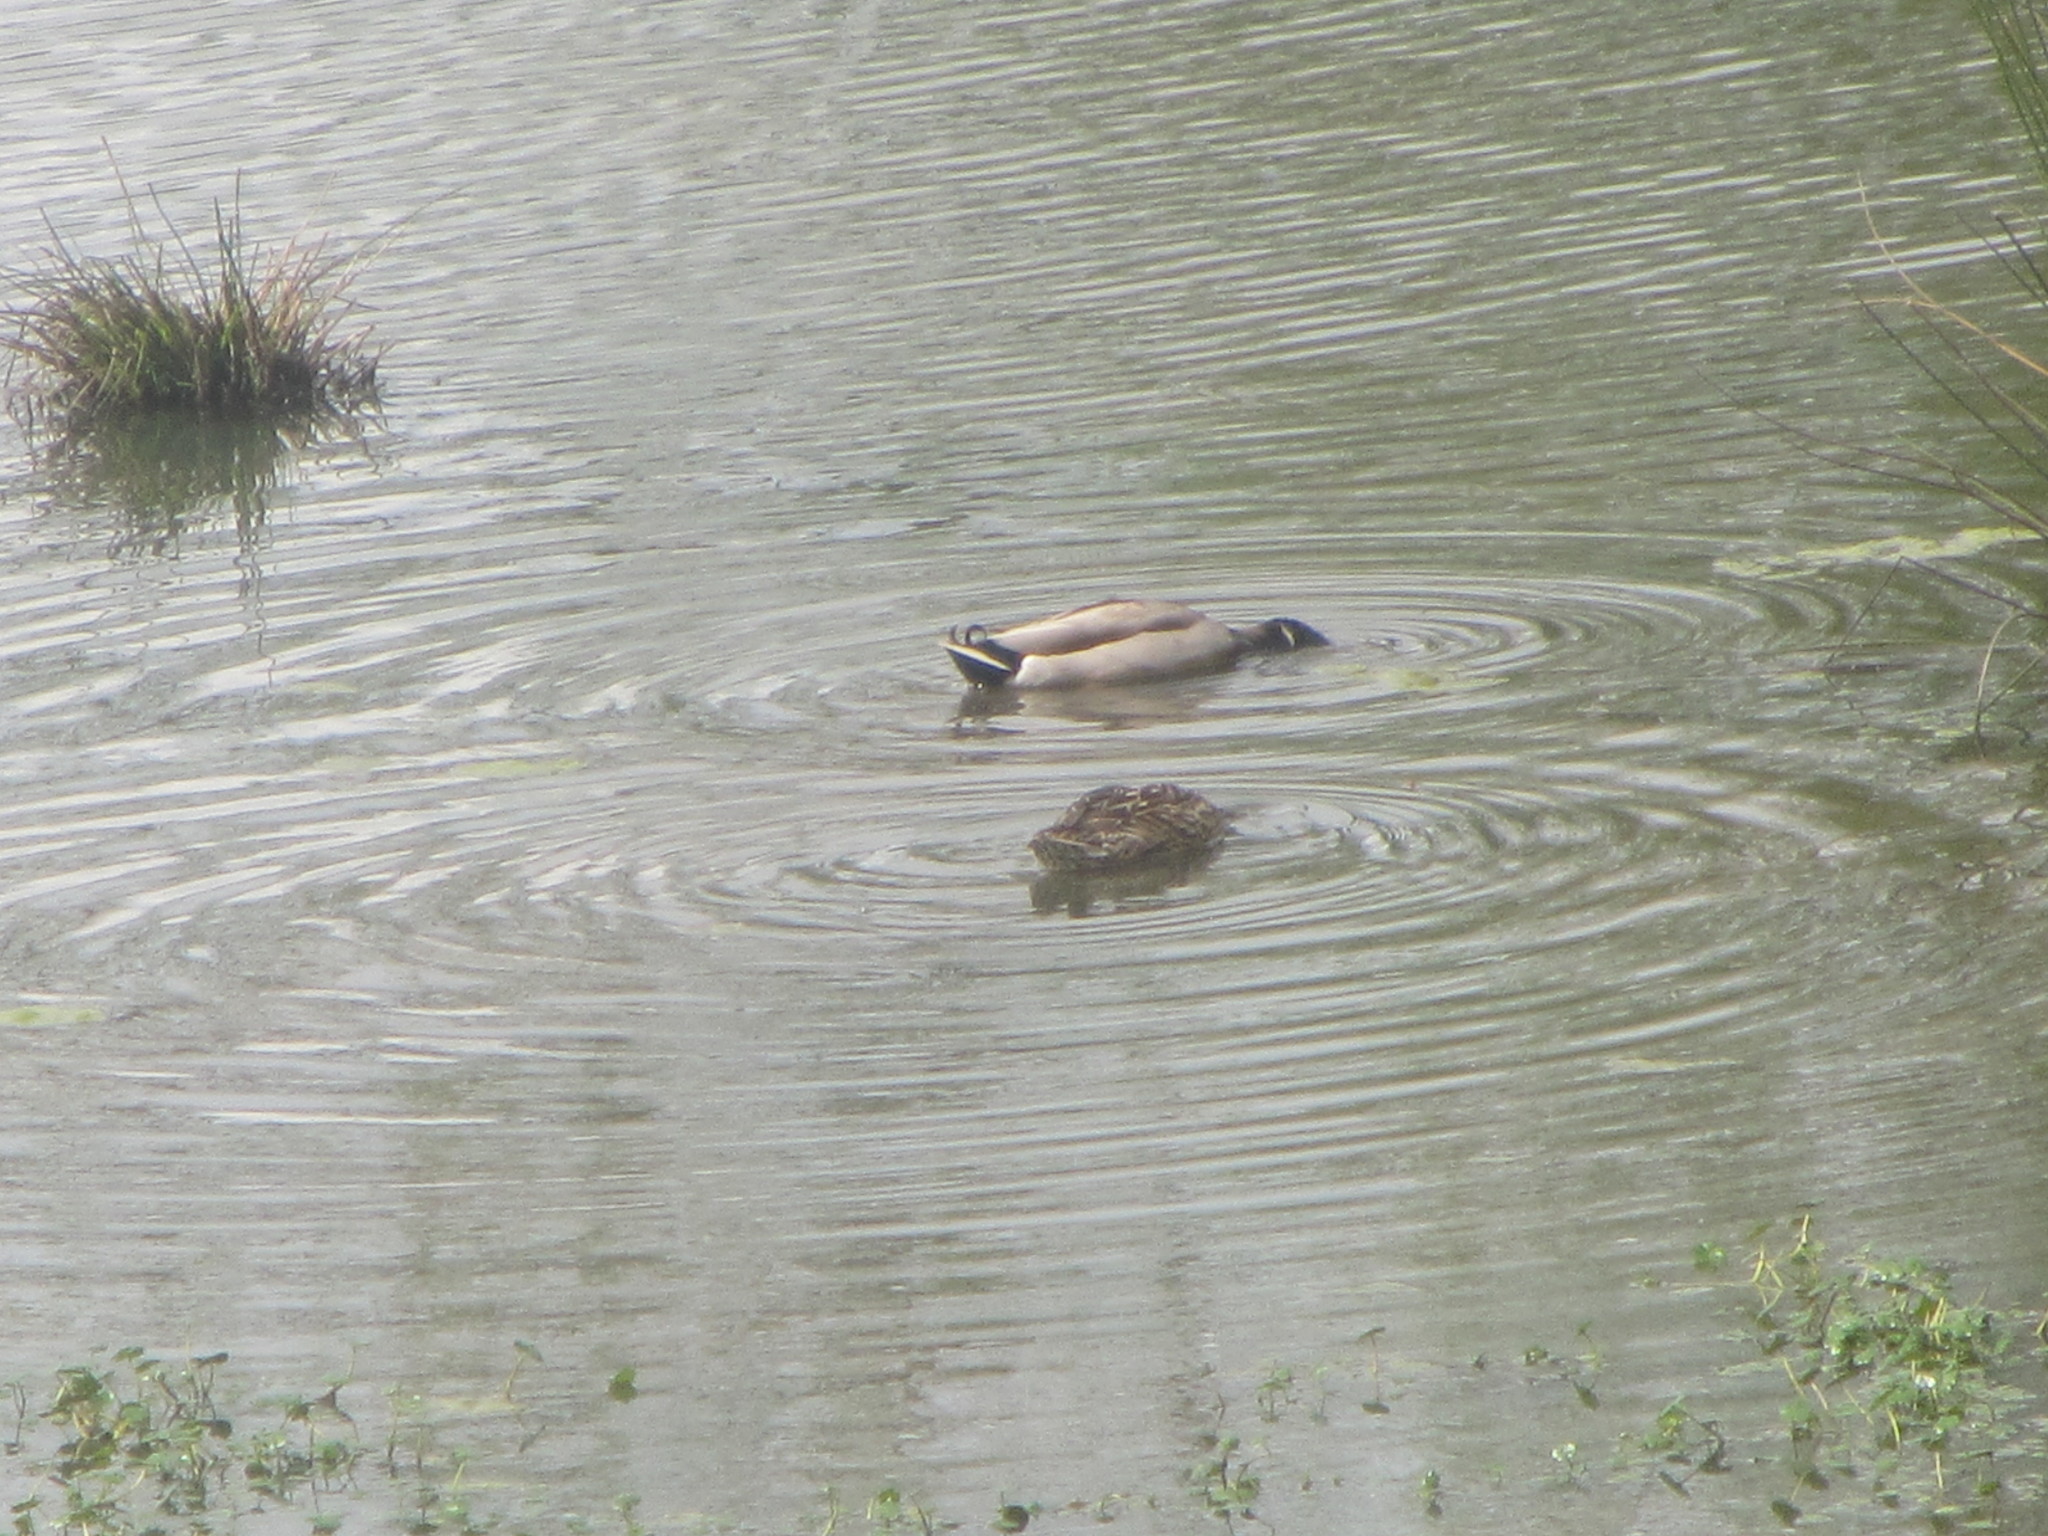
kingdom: Animalia
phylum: Chordata
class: Aves
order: Anseriformes
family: Anatidae
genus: Anas
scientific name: Anas platyrhynchos
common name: Mallard
